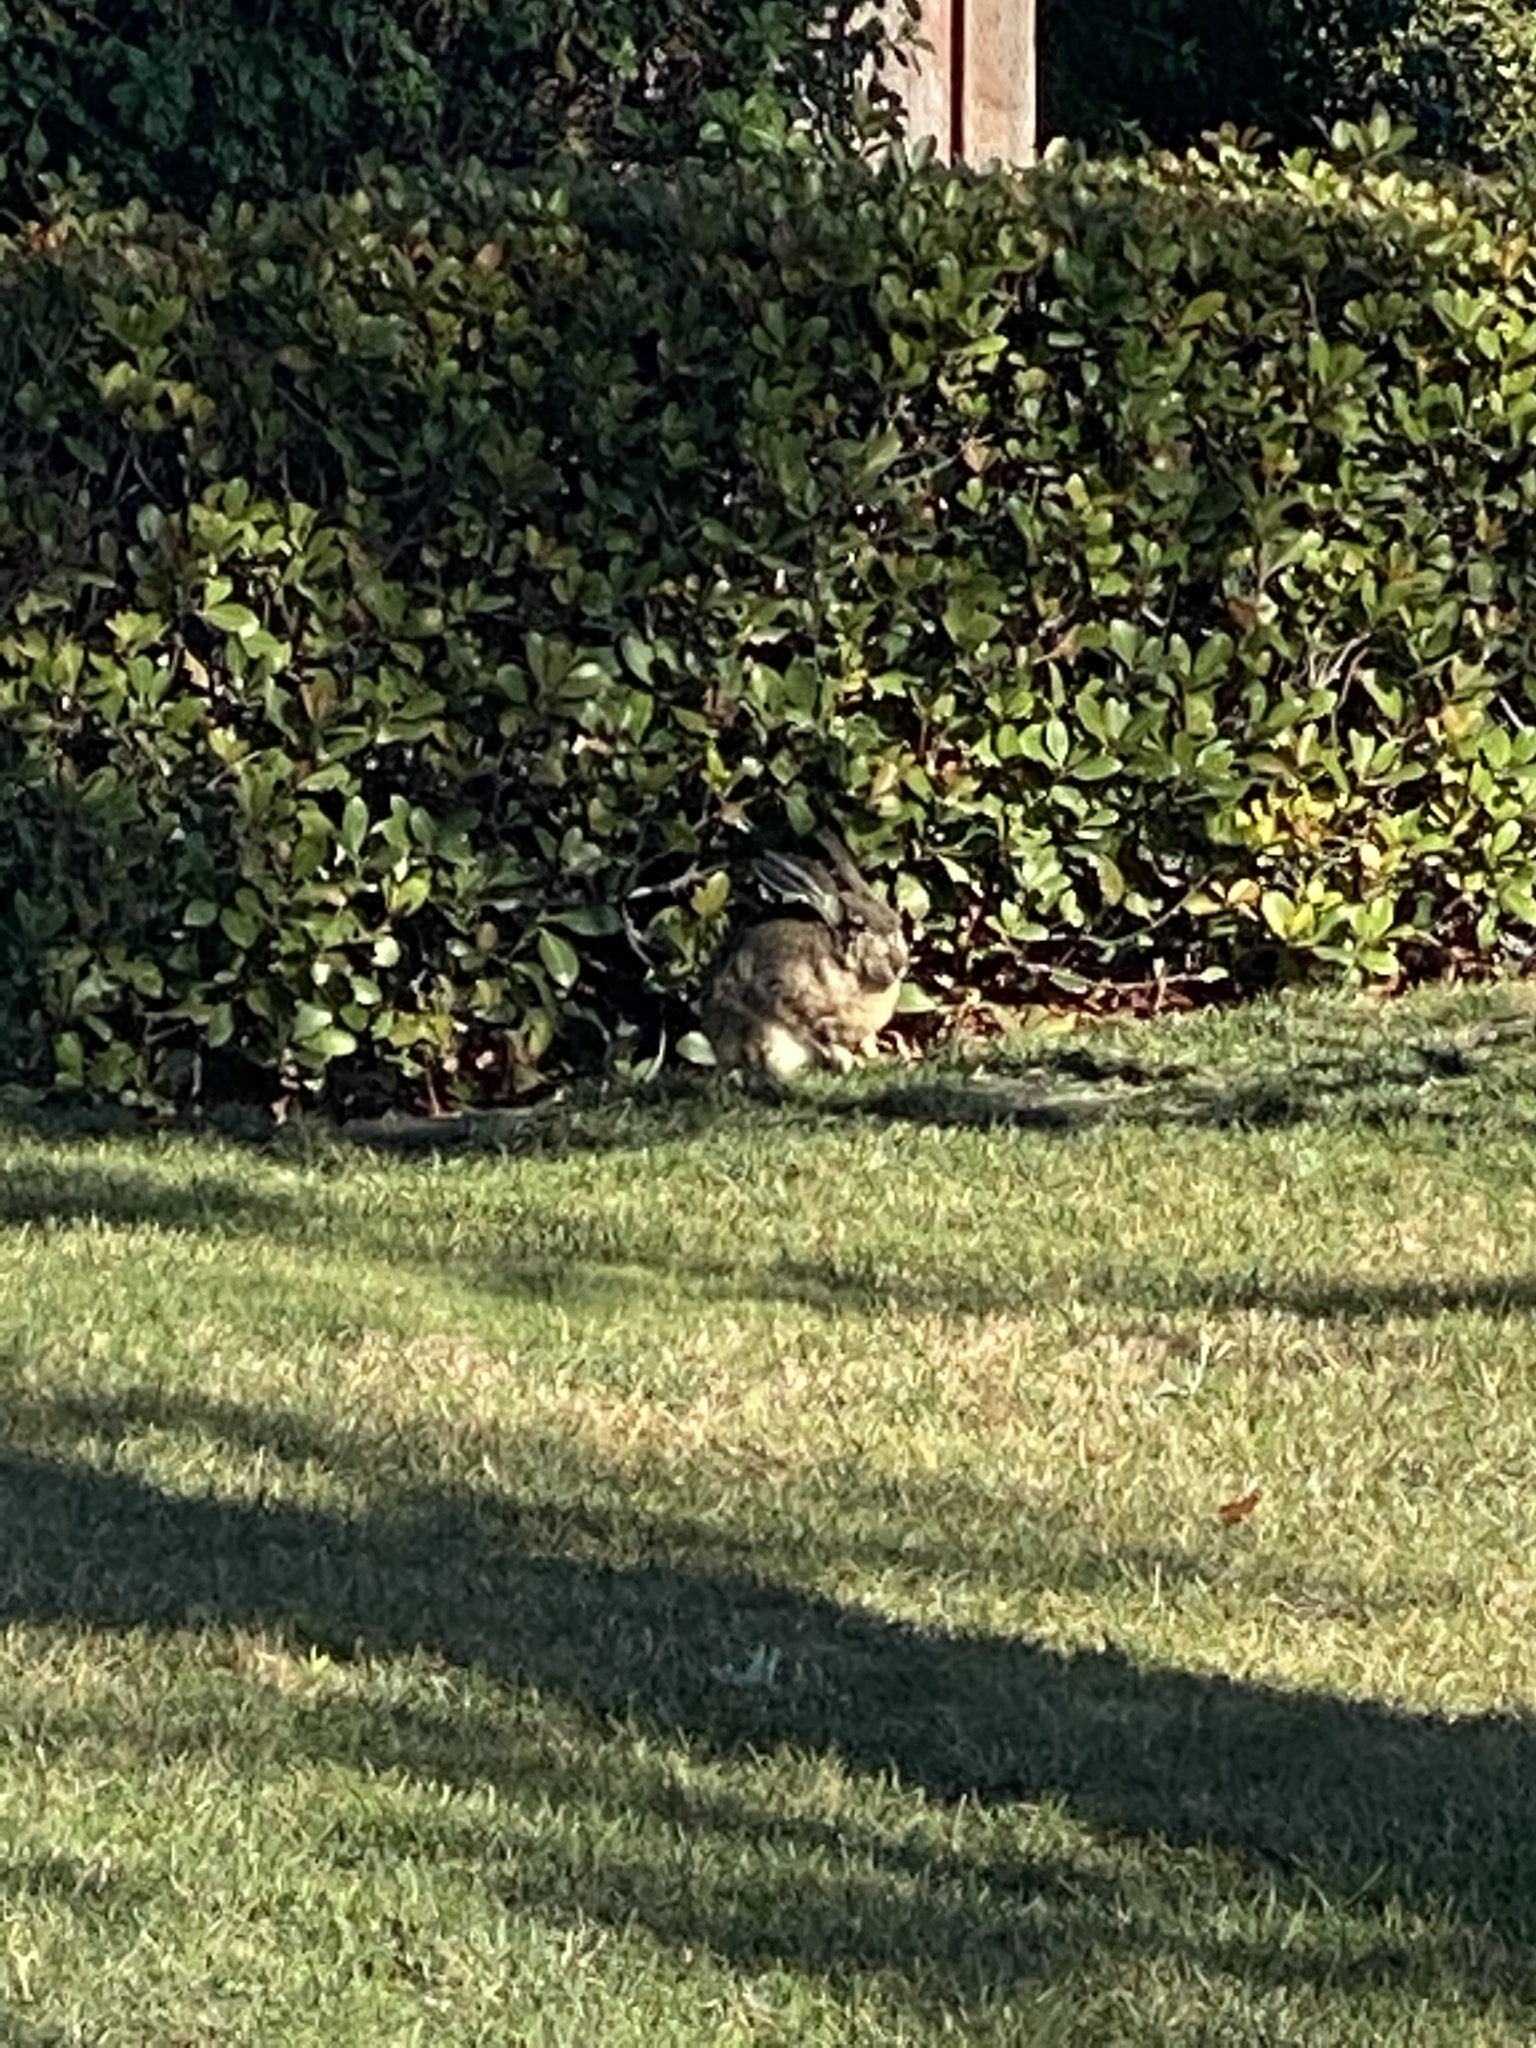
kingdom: Animalia
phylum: Chordata
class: Mammalia
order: Lagomorpha
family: Leporidae
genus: Lepus
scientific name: Lepus californicus
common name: Black-tailed jackrabbit
